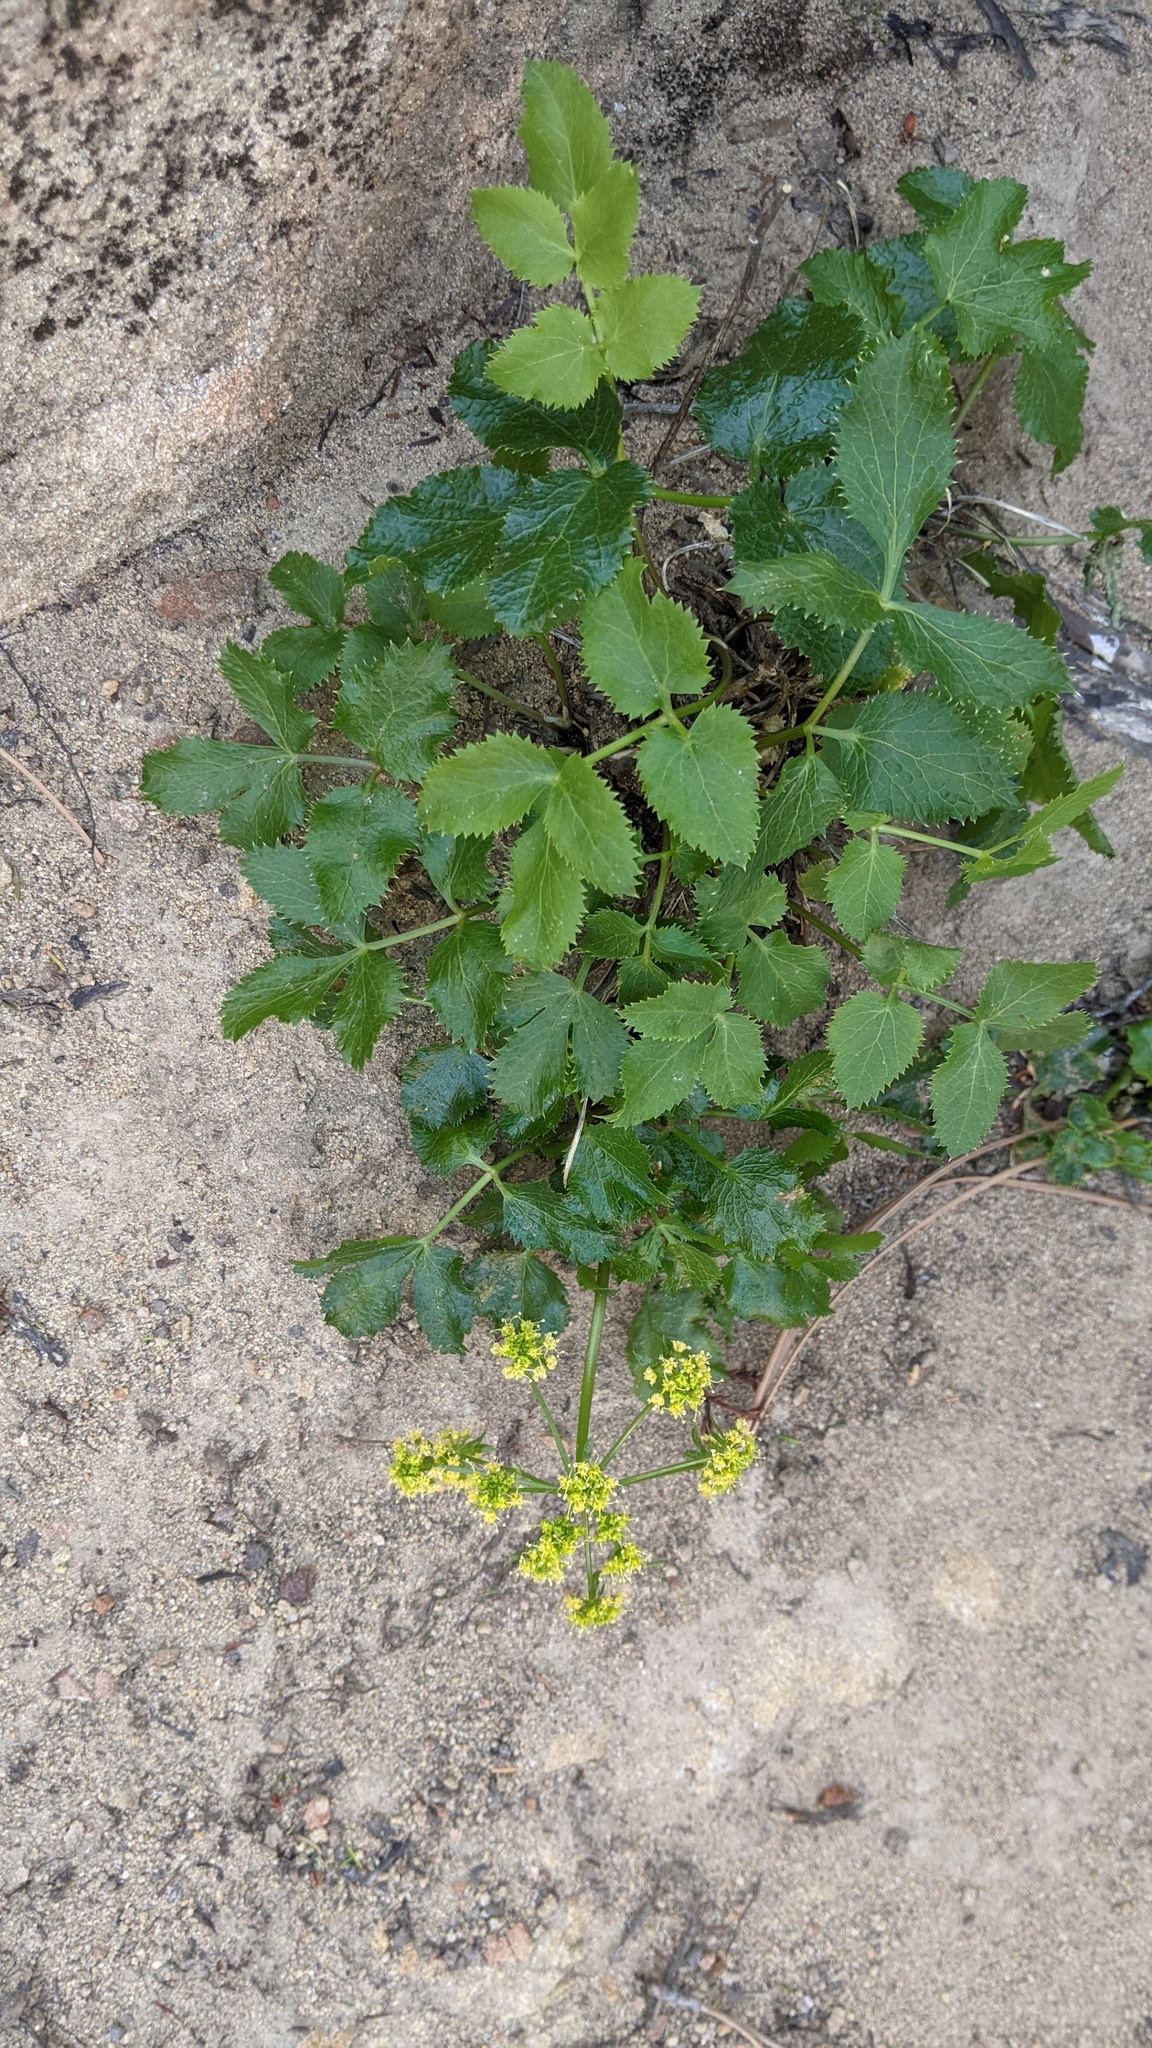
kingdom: Plantae
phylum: Tracheophyta
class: Magnoliopsida
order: Apiales
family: Apiaceae
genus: Tauschia
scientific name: Tauschia arguta
